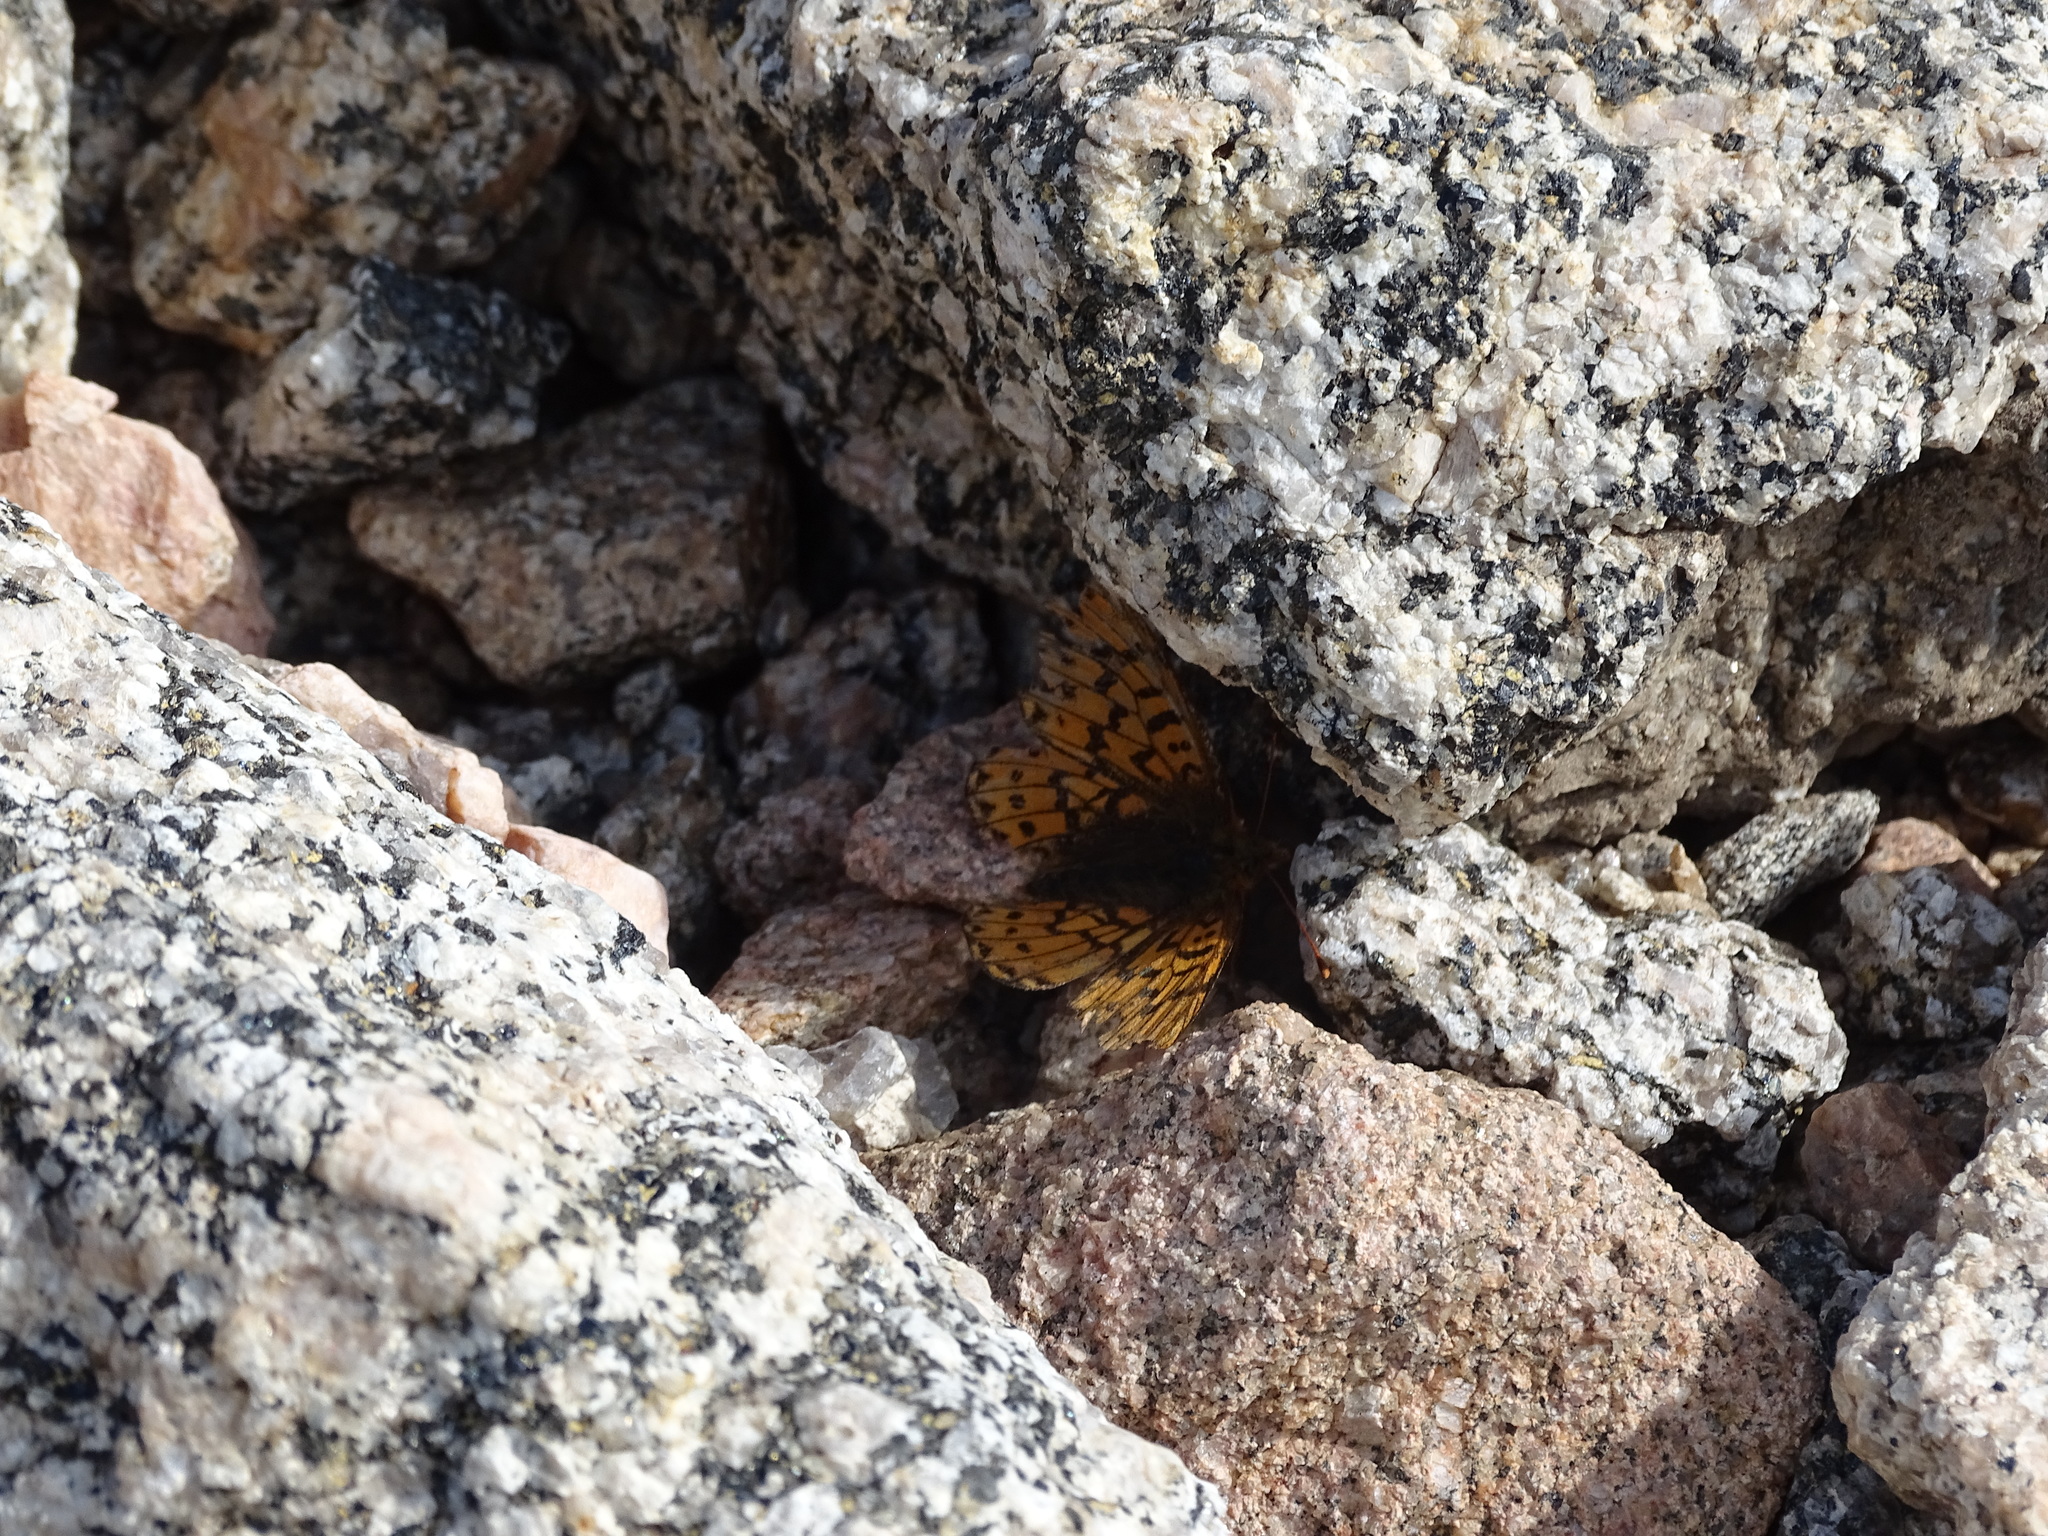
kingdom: Animalia
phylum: Arthropoda
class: Insecta
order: Lepidoptera
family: Nymphalidae
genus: Boloria
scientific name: Boloria chariclea
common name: Arctic fritillary
